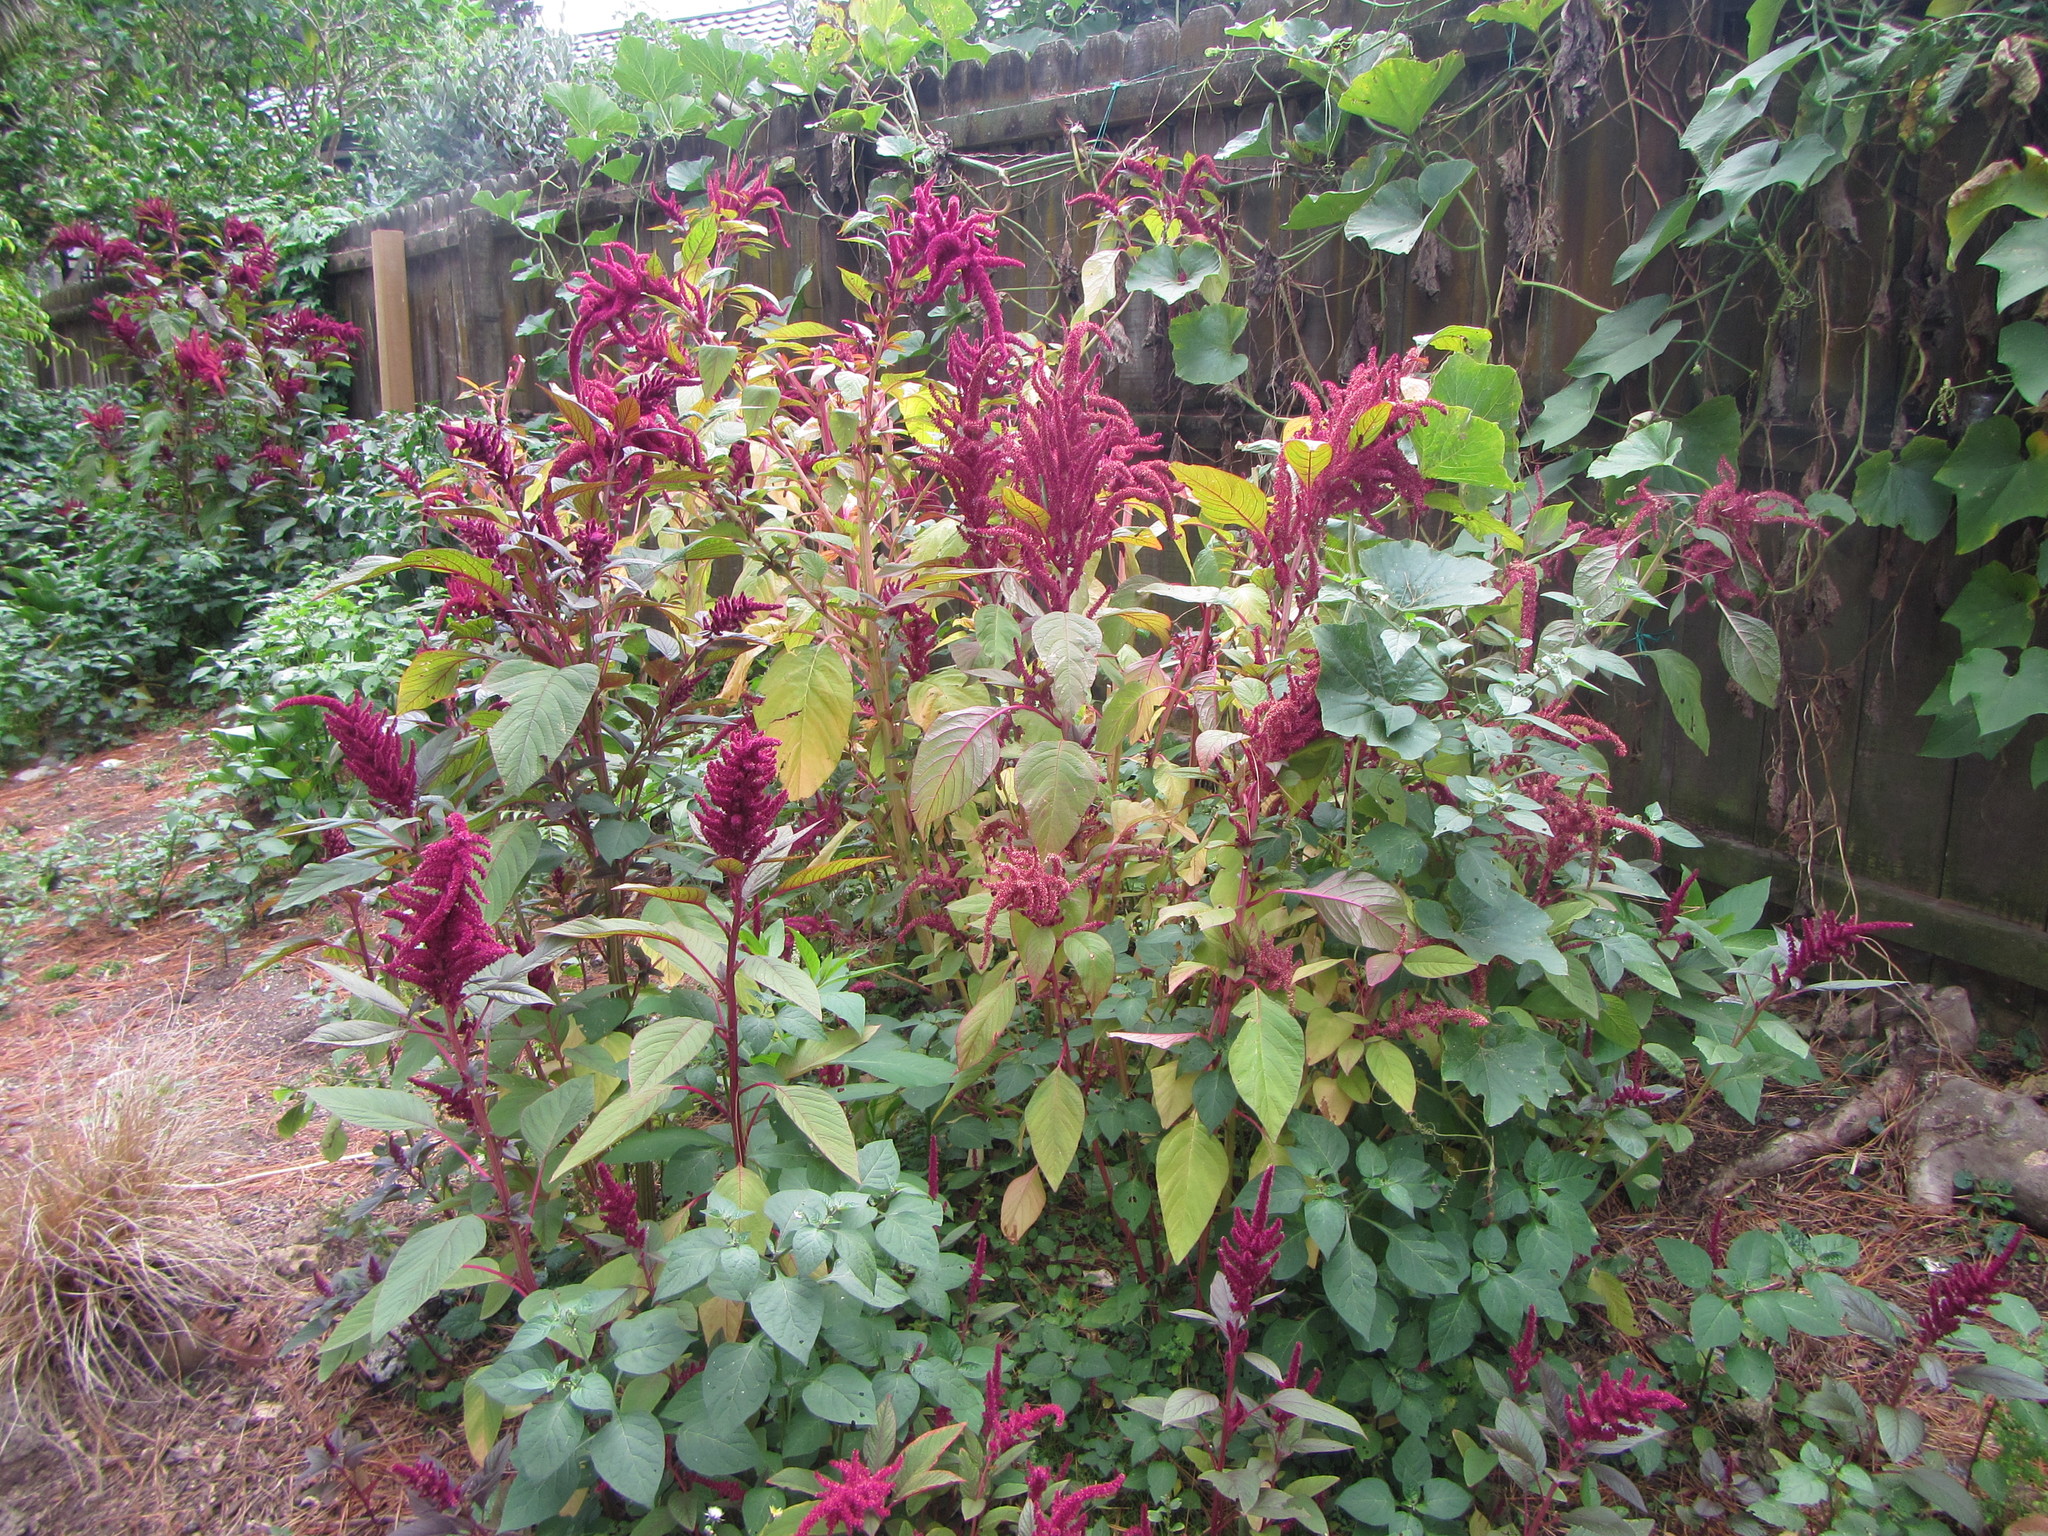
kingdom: Plantae
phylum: Tracheophyta
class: Magnoliopsida
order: Caryophyllales
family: Amaranthaceae
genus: Amaranthus
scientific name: Amaranthus cruentus
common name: Purple amaranth
